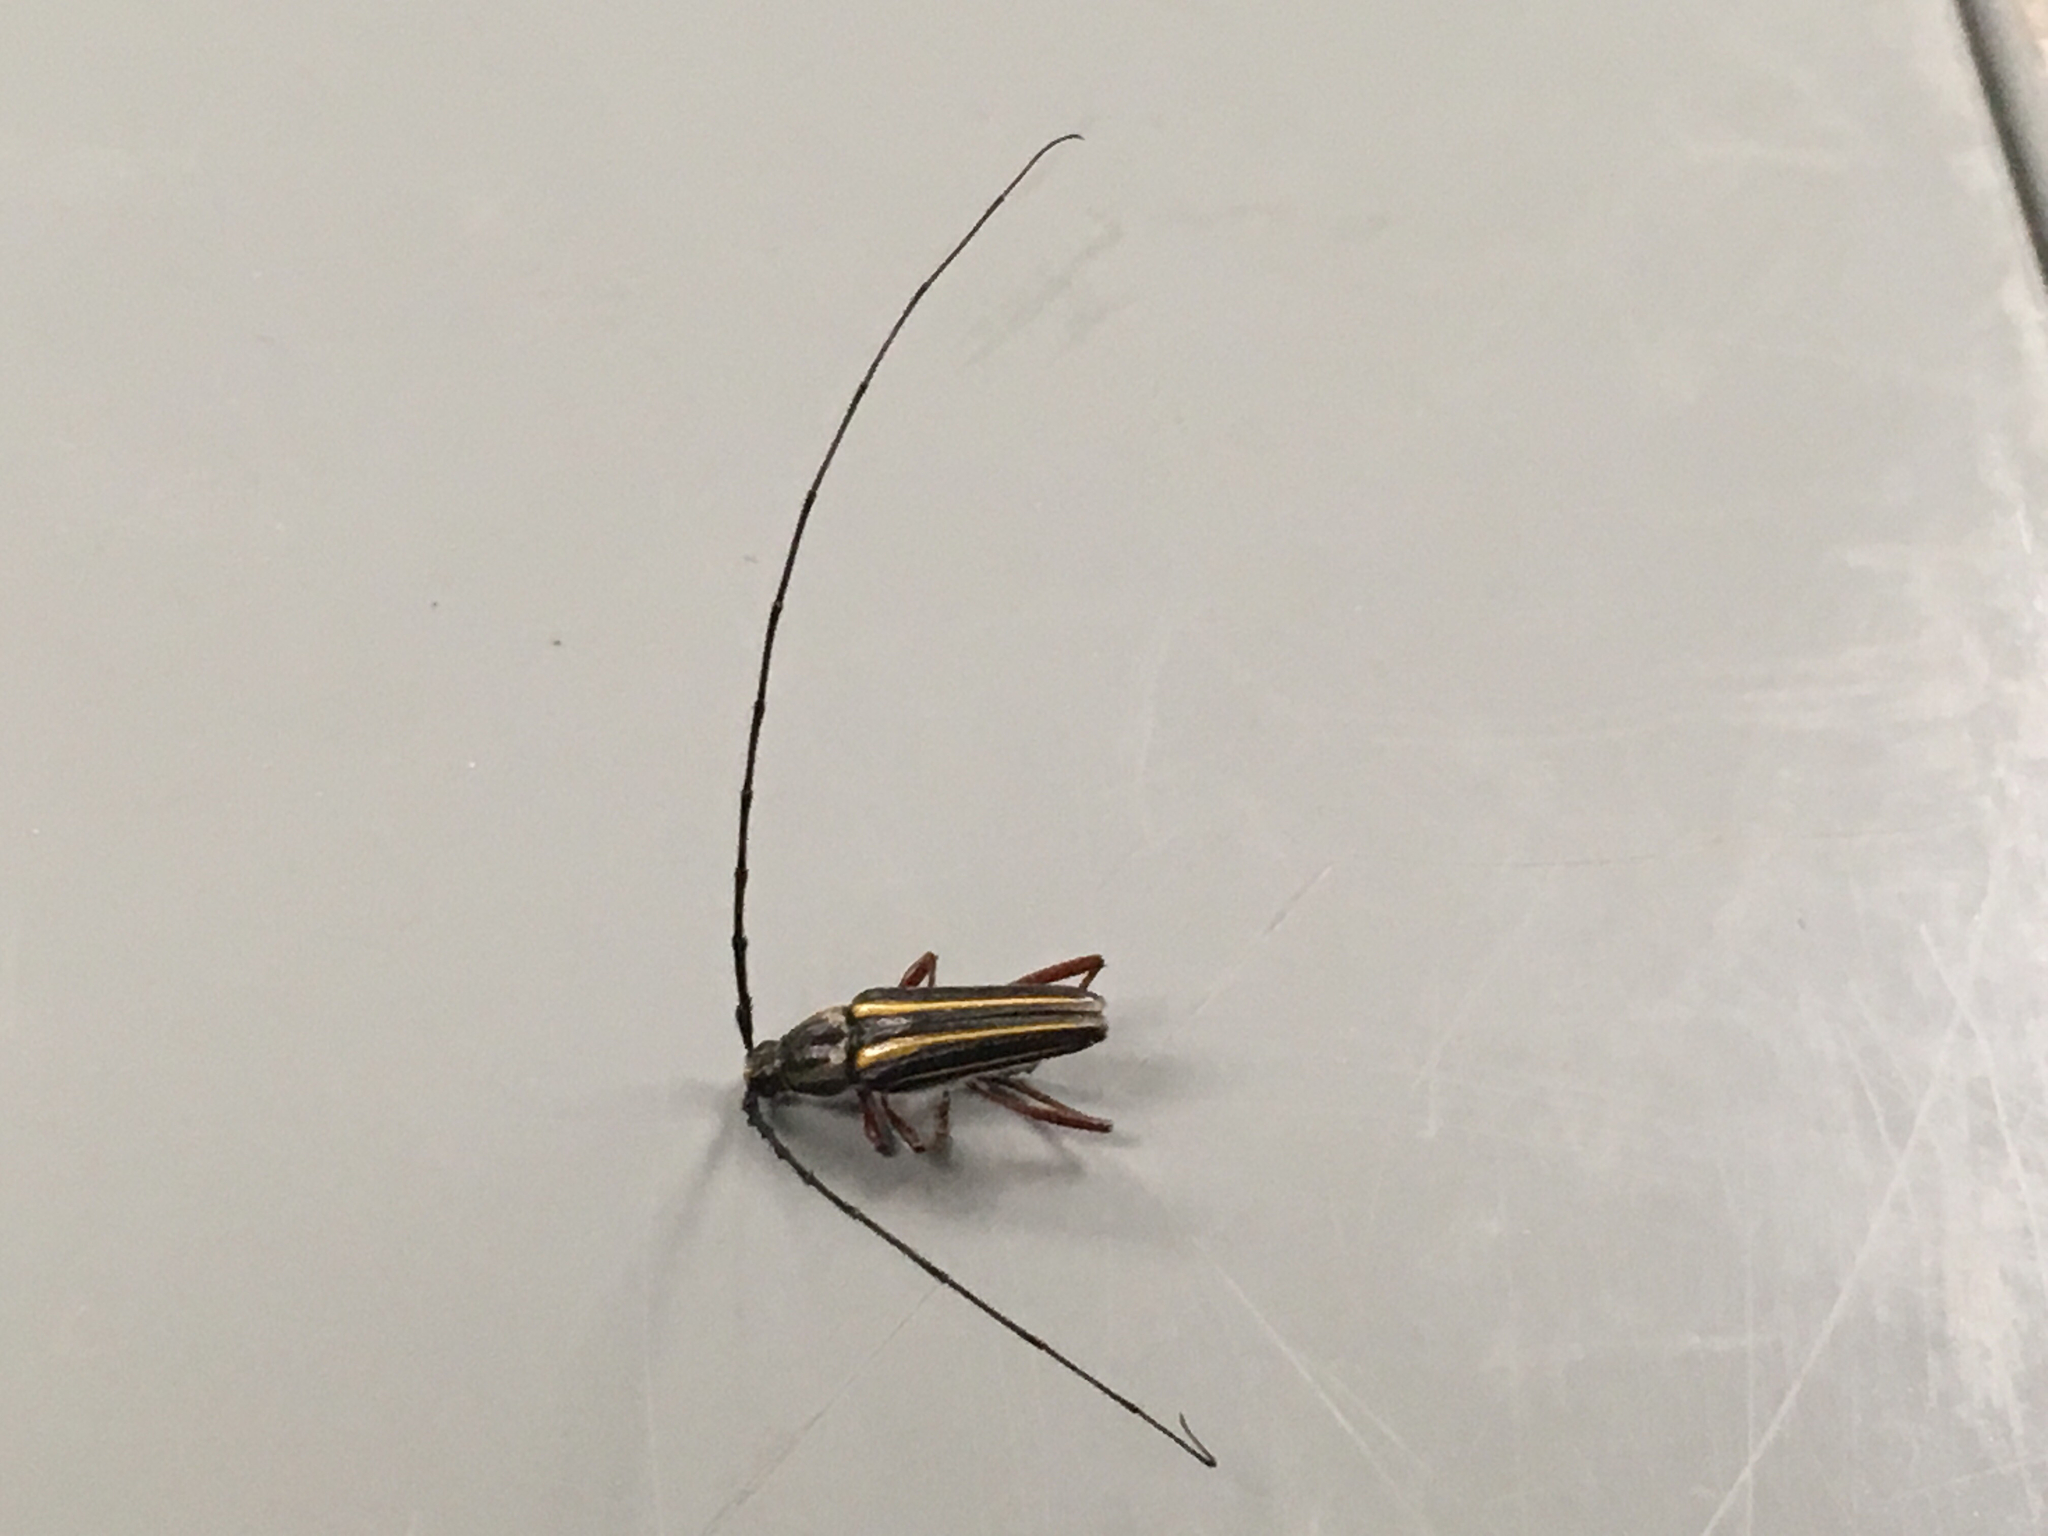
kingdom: Animalia
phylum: Arthropoda
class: Insecta
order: Coleoptera
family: Cerambycidae
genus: Sphaenothecus
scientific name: Sphaenothecus bilineatus
